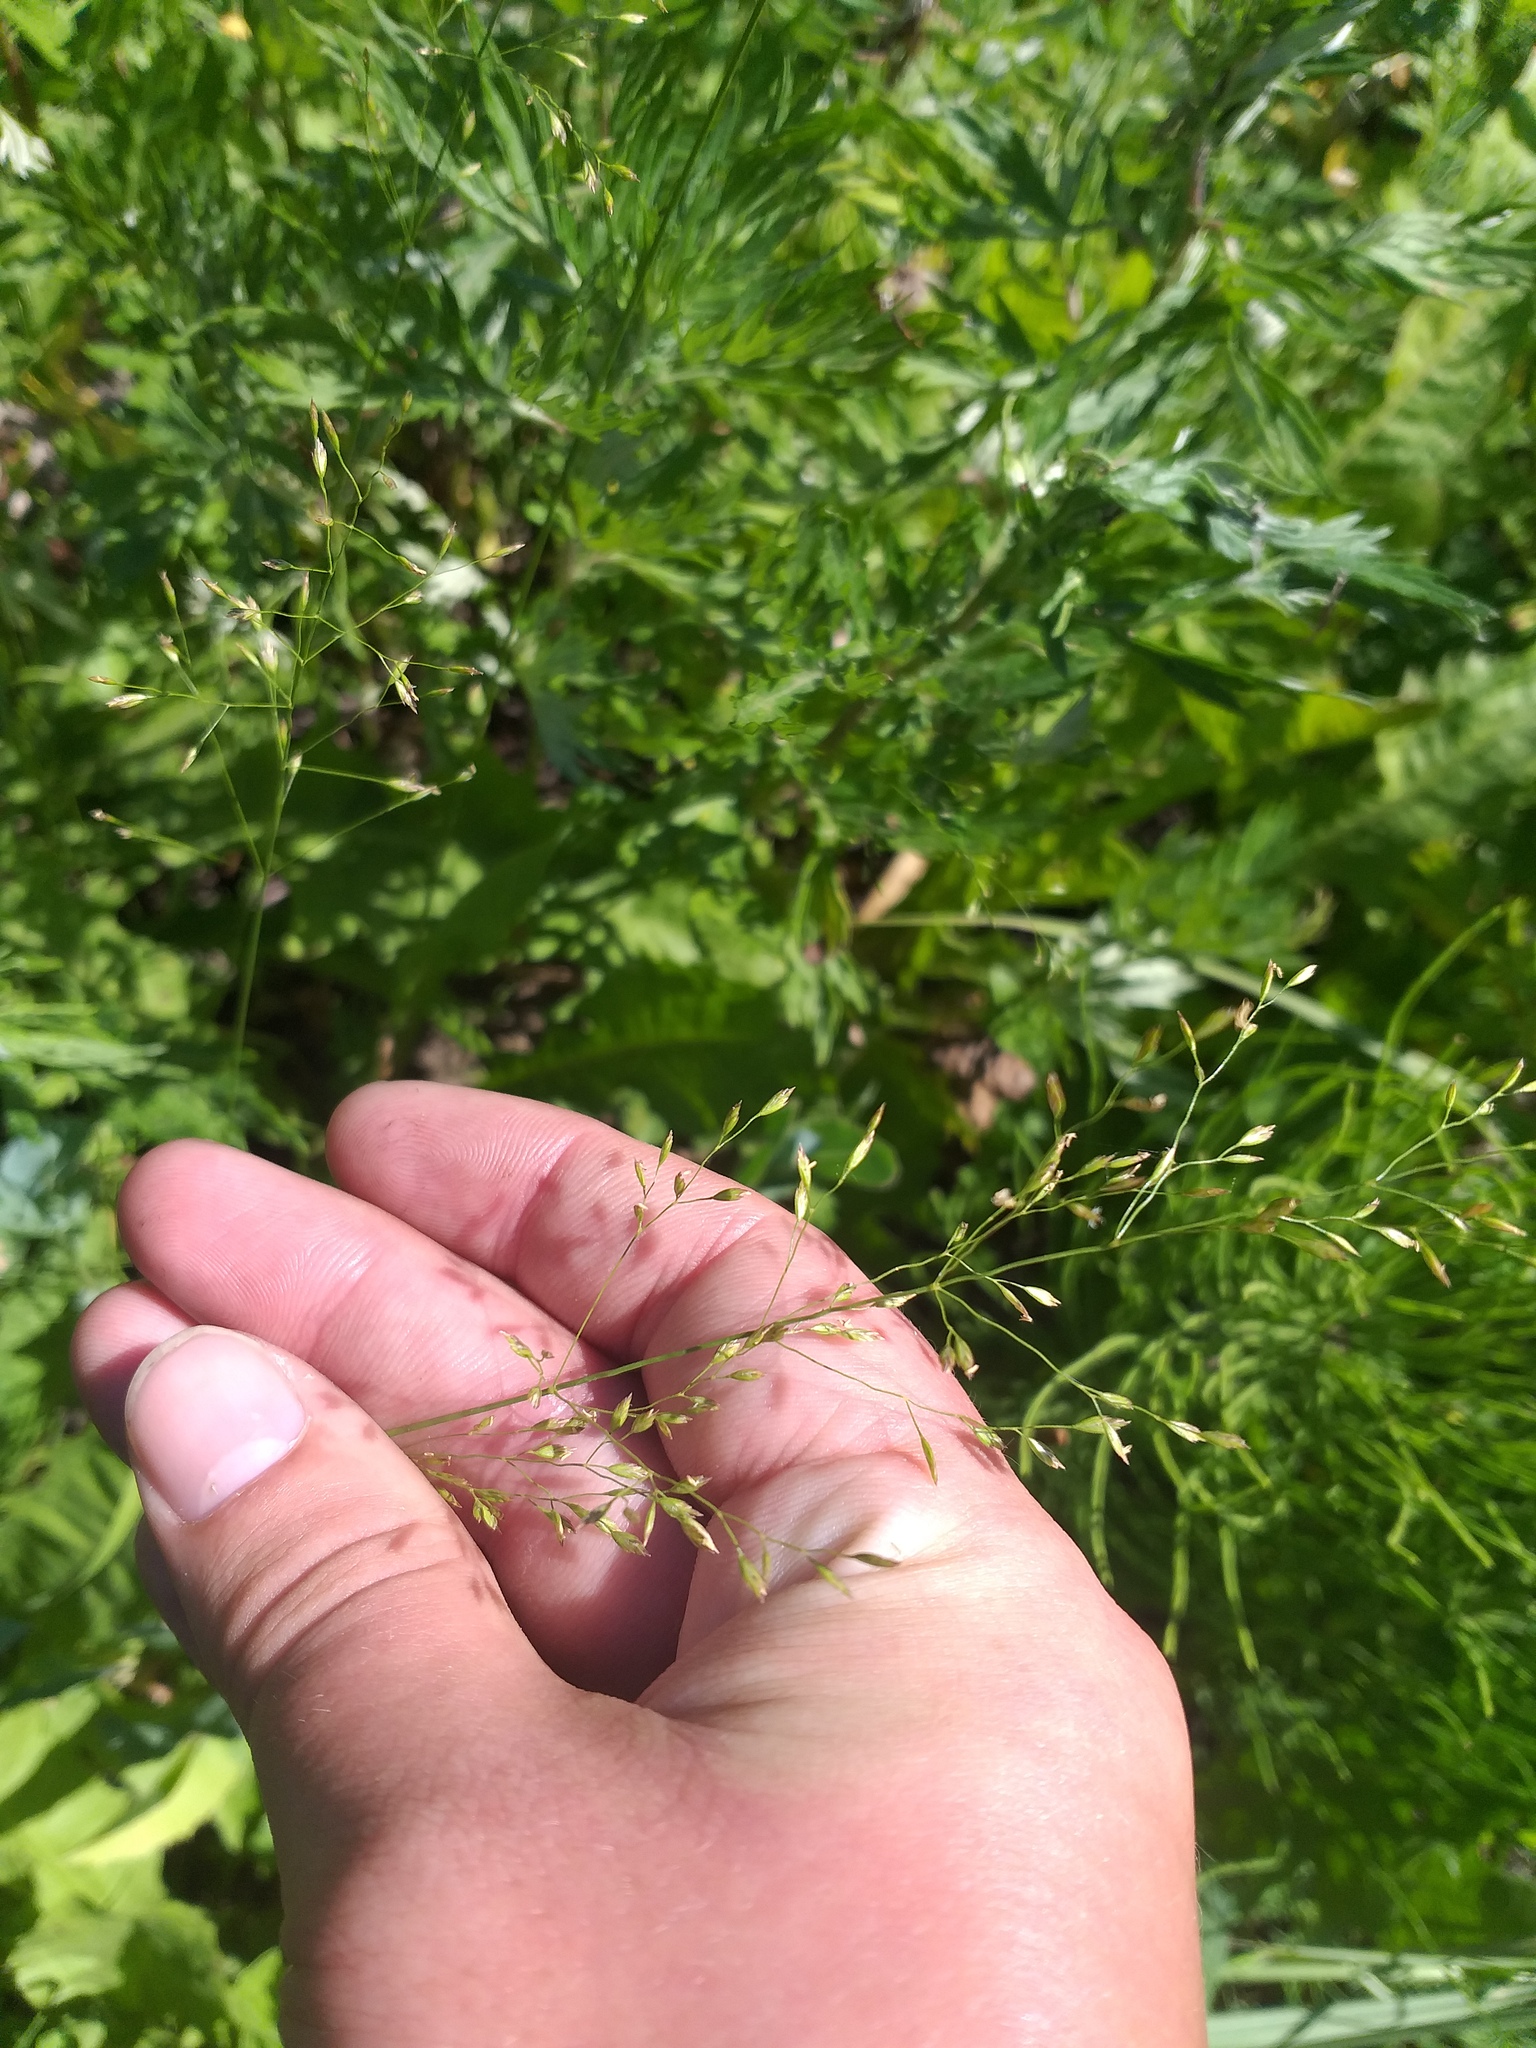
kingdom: Plantae
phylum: Tracheophyta
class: Liliopsida
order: Poales
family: Poaceae
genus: Poa
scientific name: Poa palustris
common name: Swamp meadow-grass
